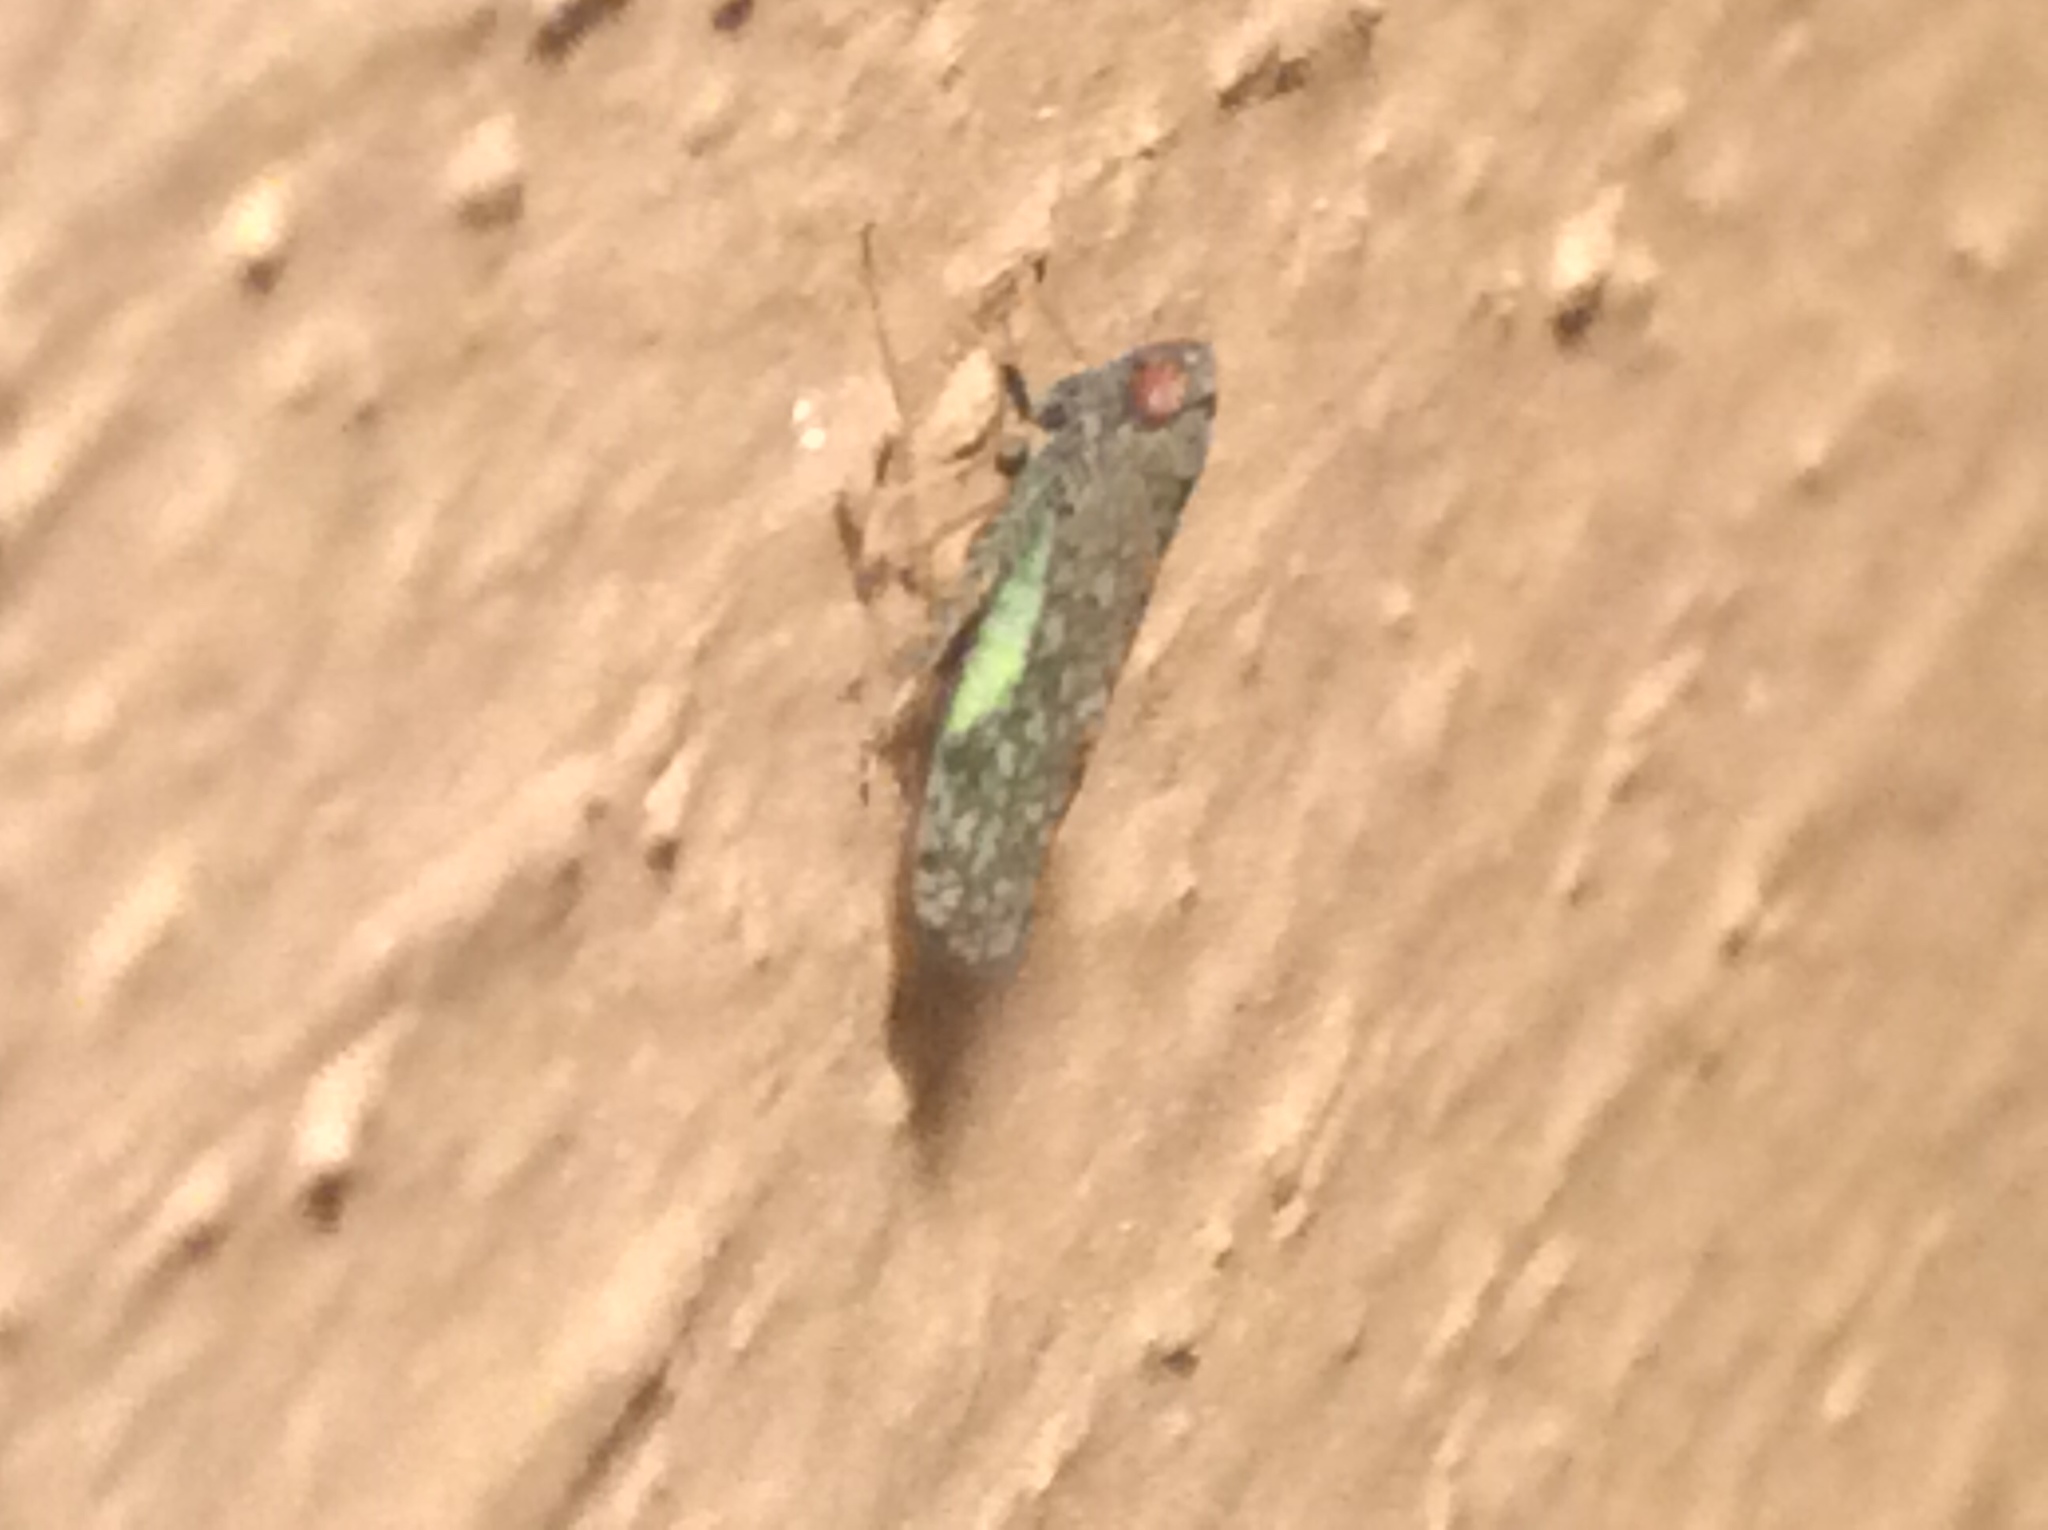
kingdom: Animalia
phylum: Arthropoda
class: Insecta
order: Hemiptera
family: Cicadellidae
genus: Orientus
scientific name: Orientus ishidae
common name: Japanese leafhopper
